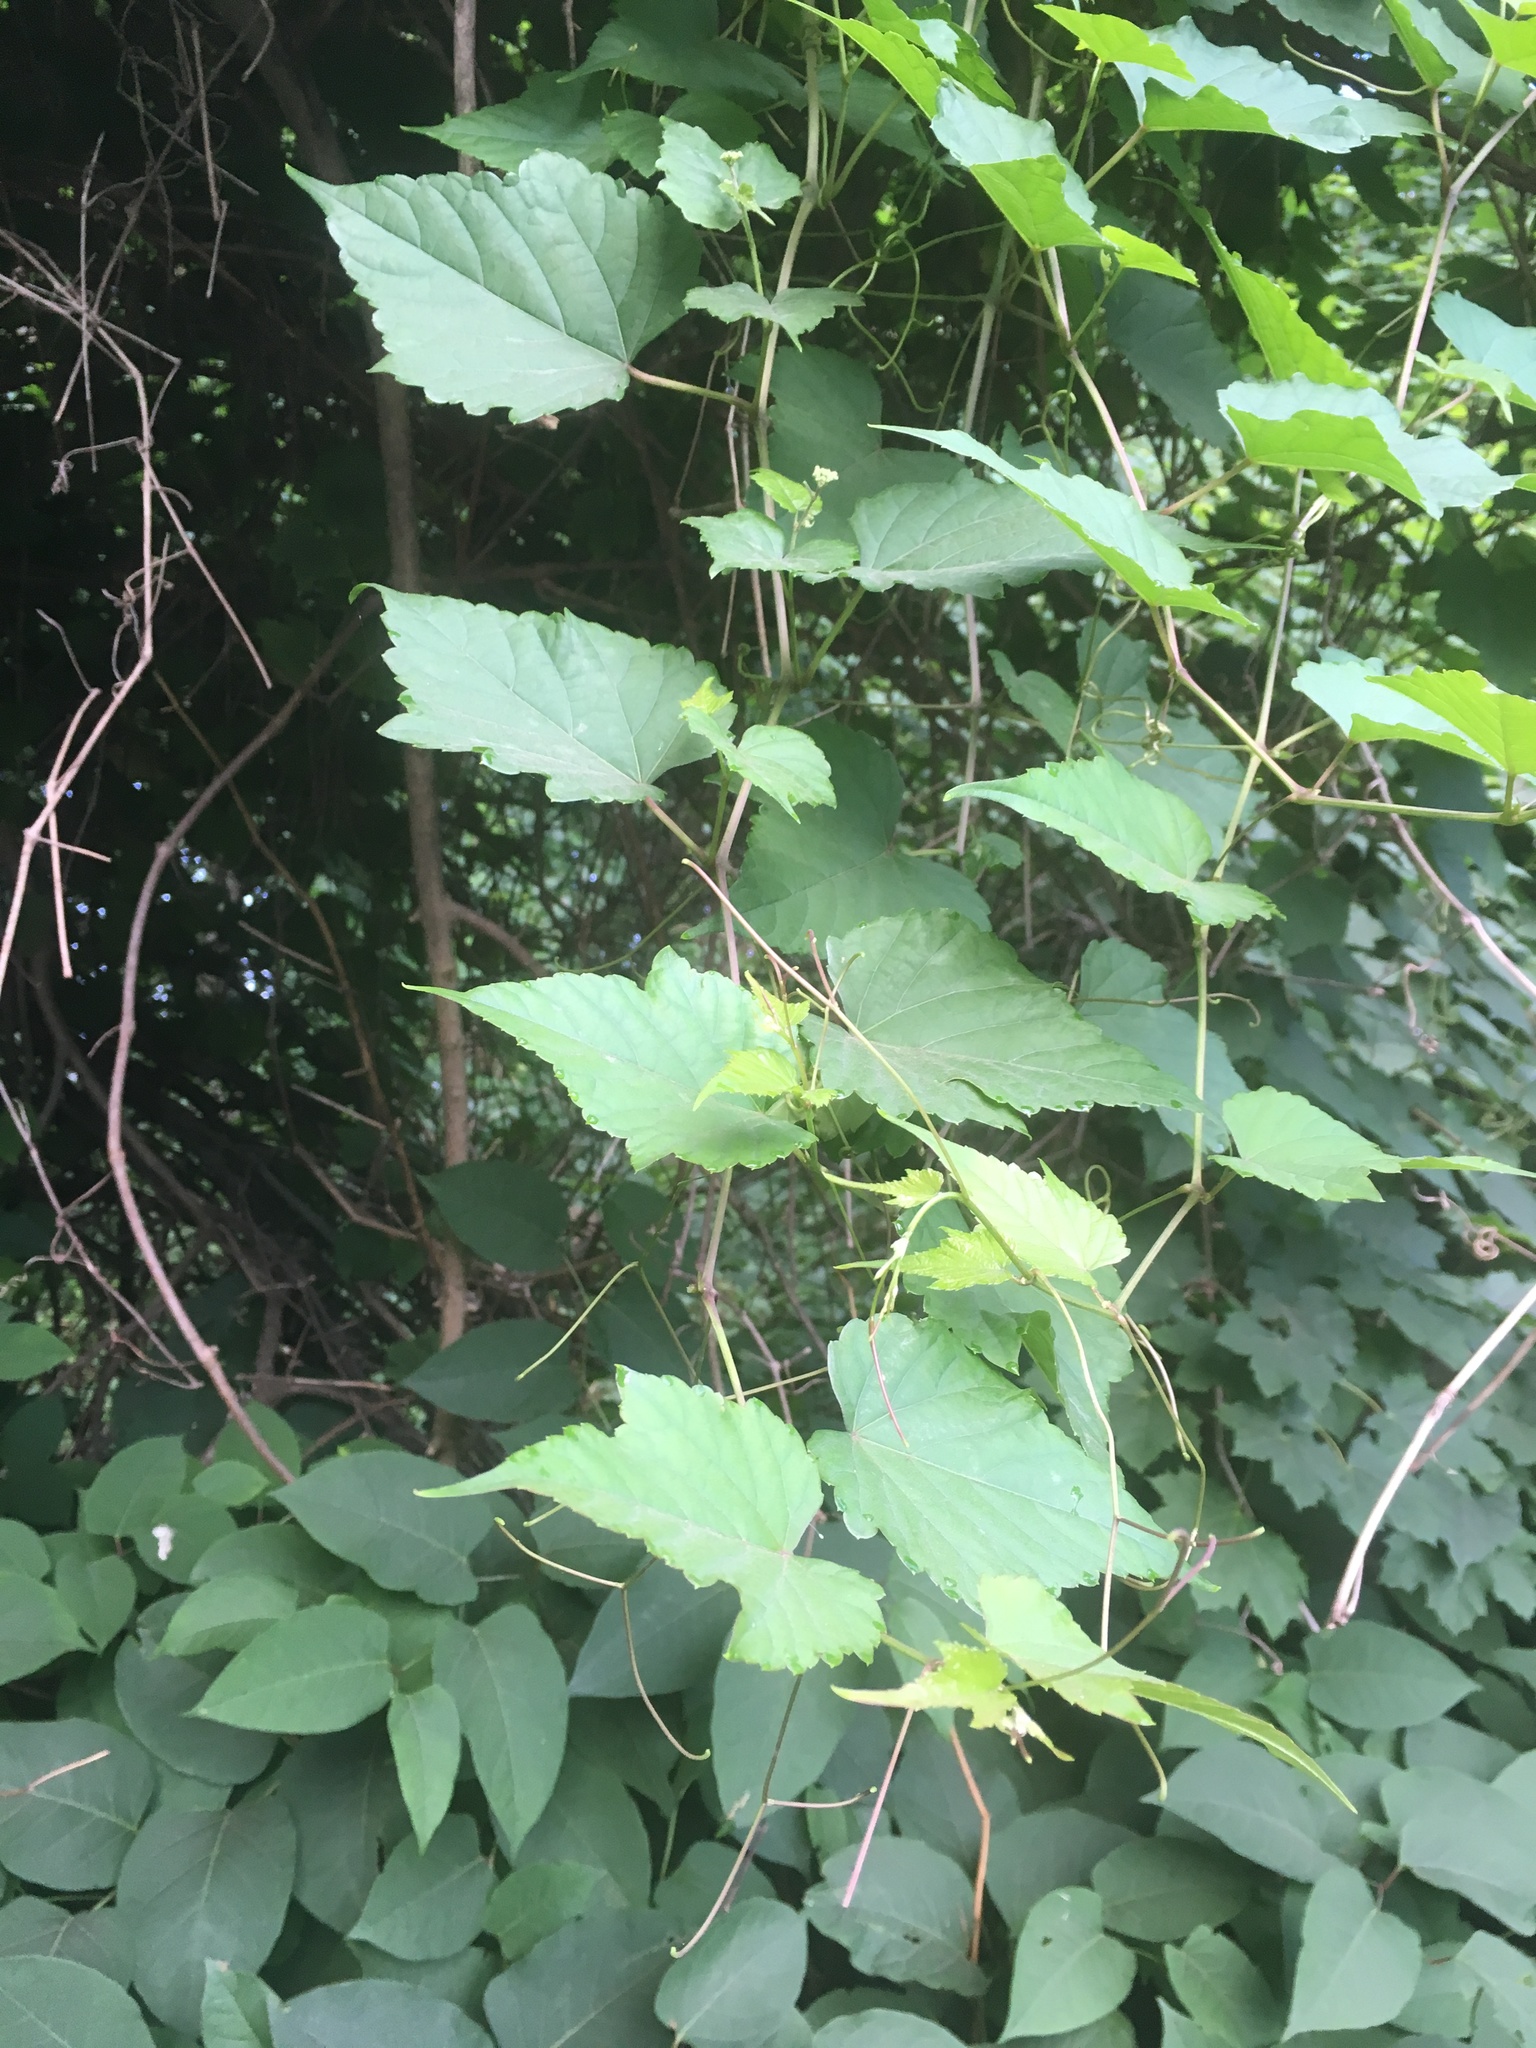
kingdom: Plantae
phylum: Tracheophyta
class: Magnoliopsida
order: Vitales
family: Vitaceae
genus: Ampelopsis
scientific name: Ampelopsis glandulosa
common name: Amur peppervine
